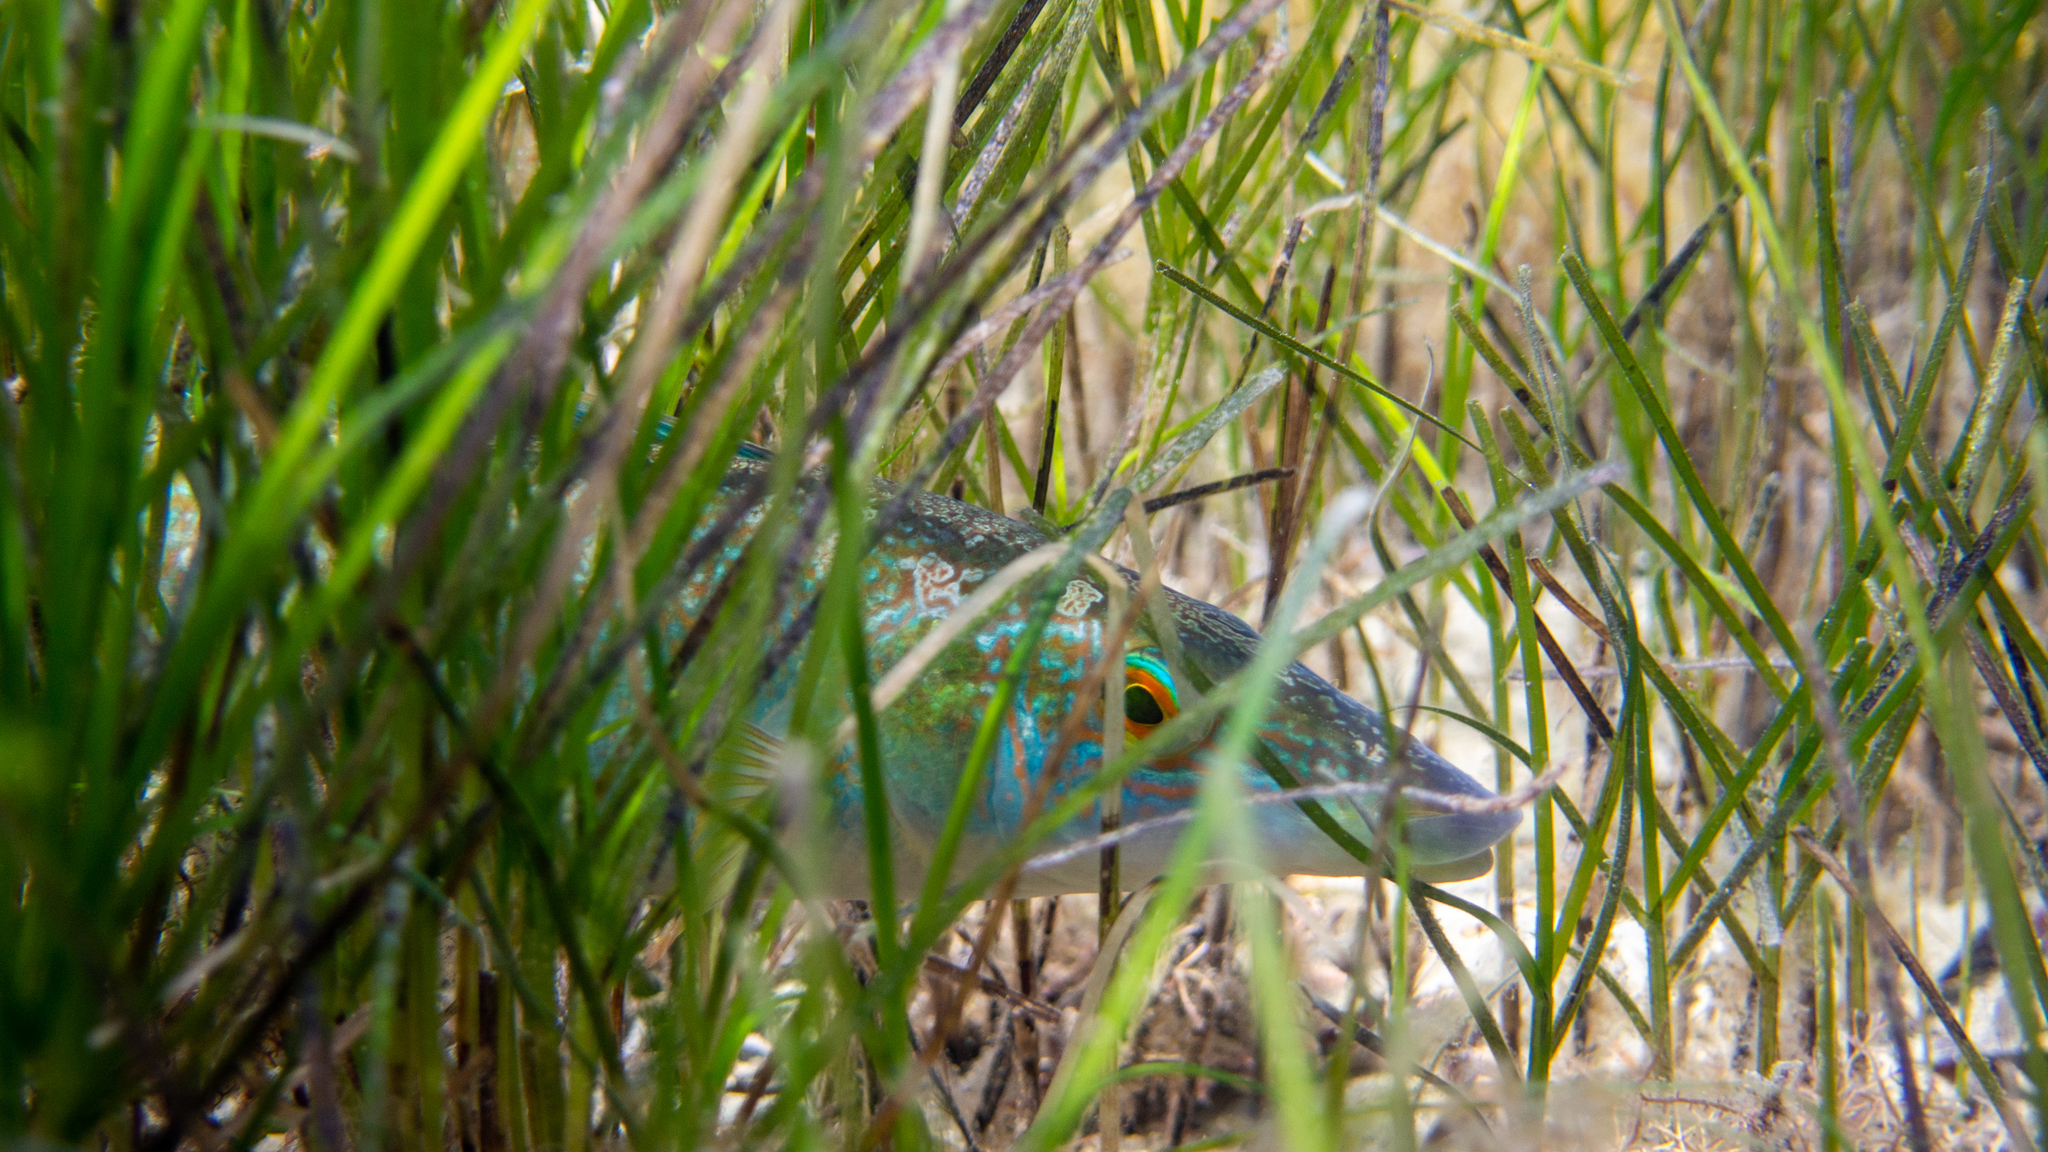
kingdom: Animalia
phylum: Chordata
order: Perciformes
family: Odacidae
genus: Haletta
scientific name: Haletta semifasciata
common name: Blue rock whiting
